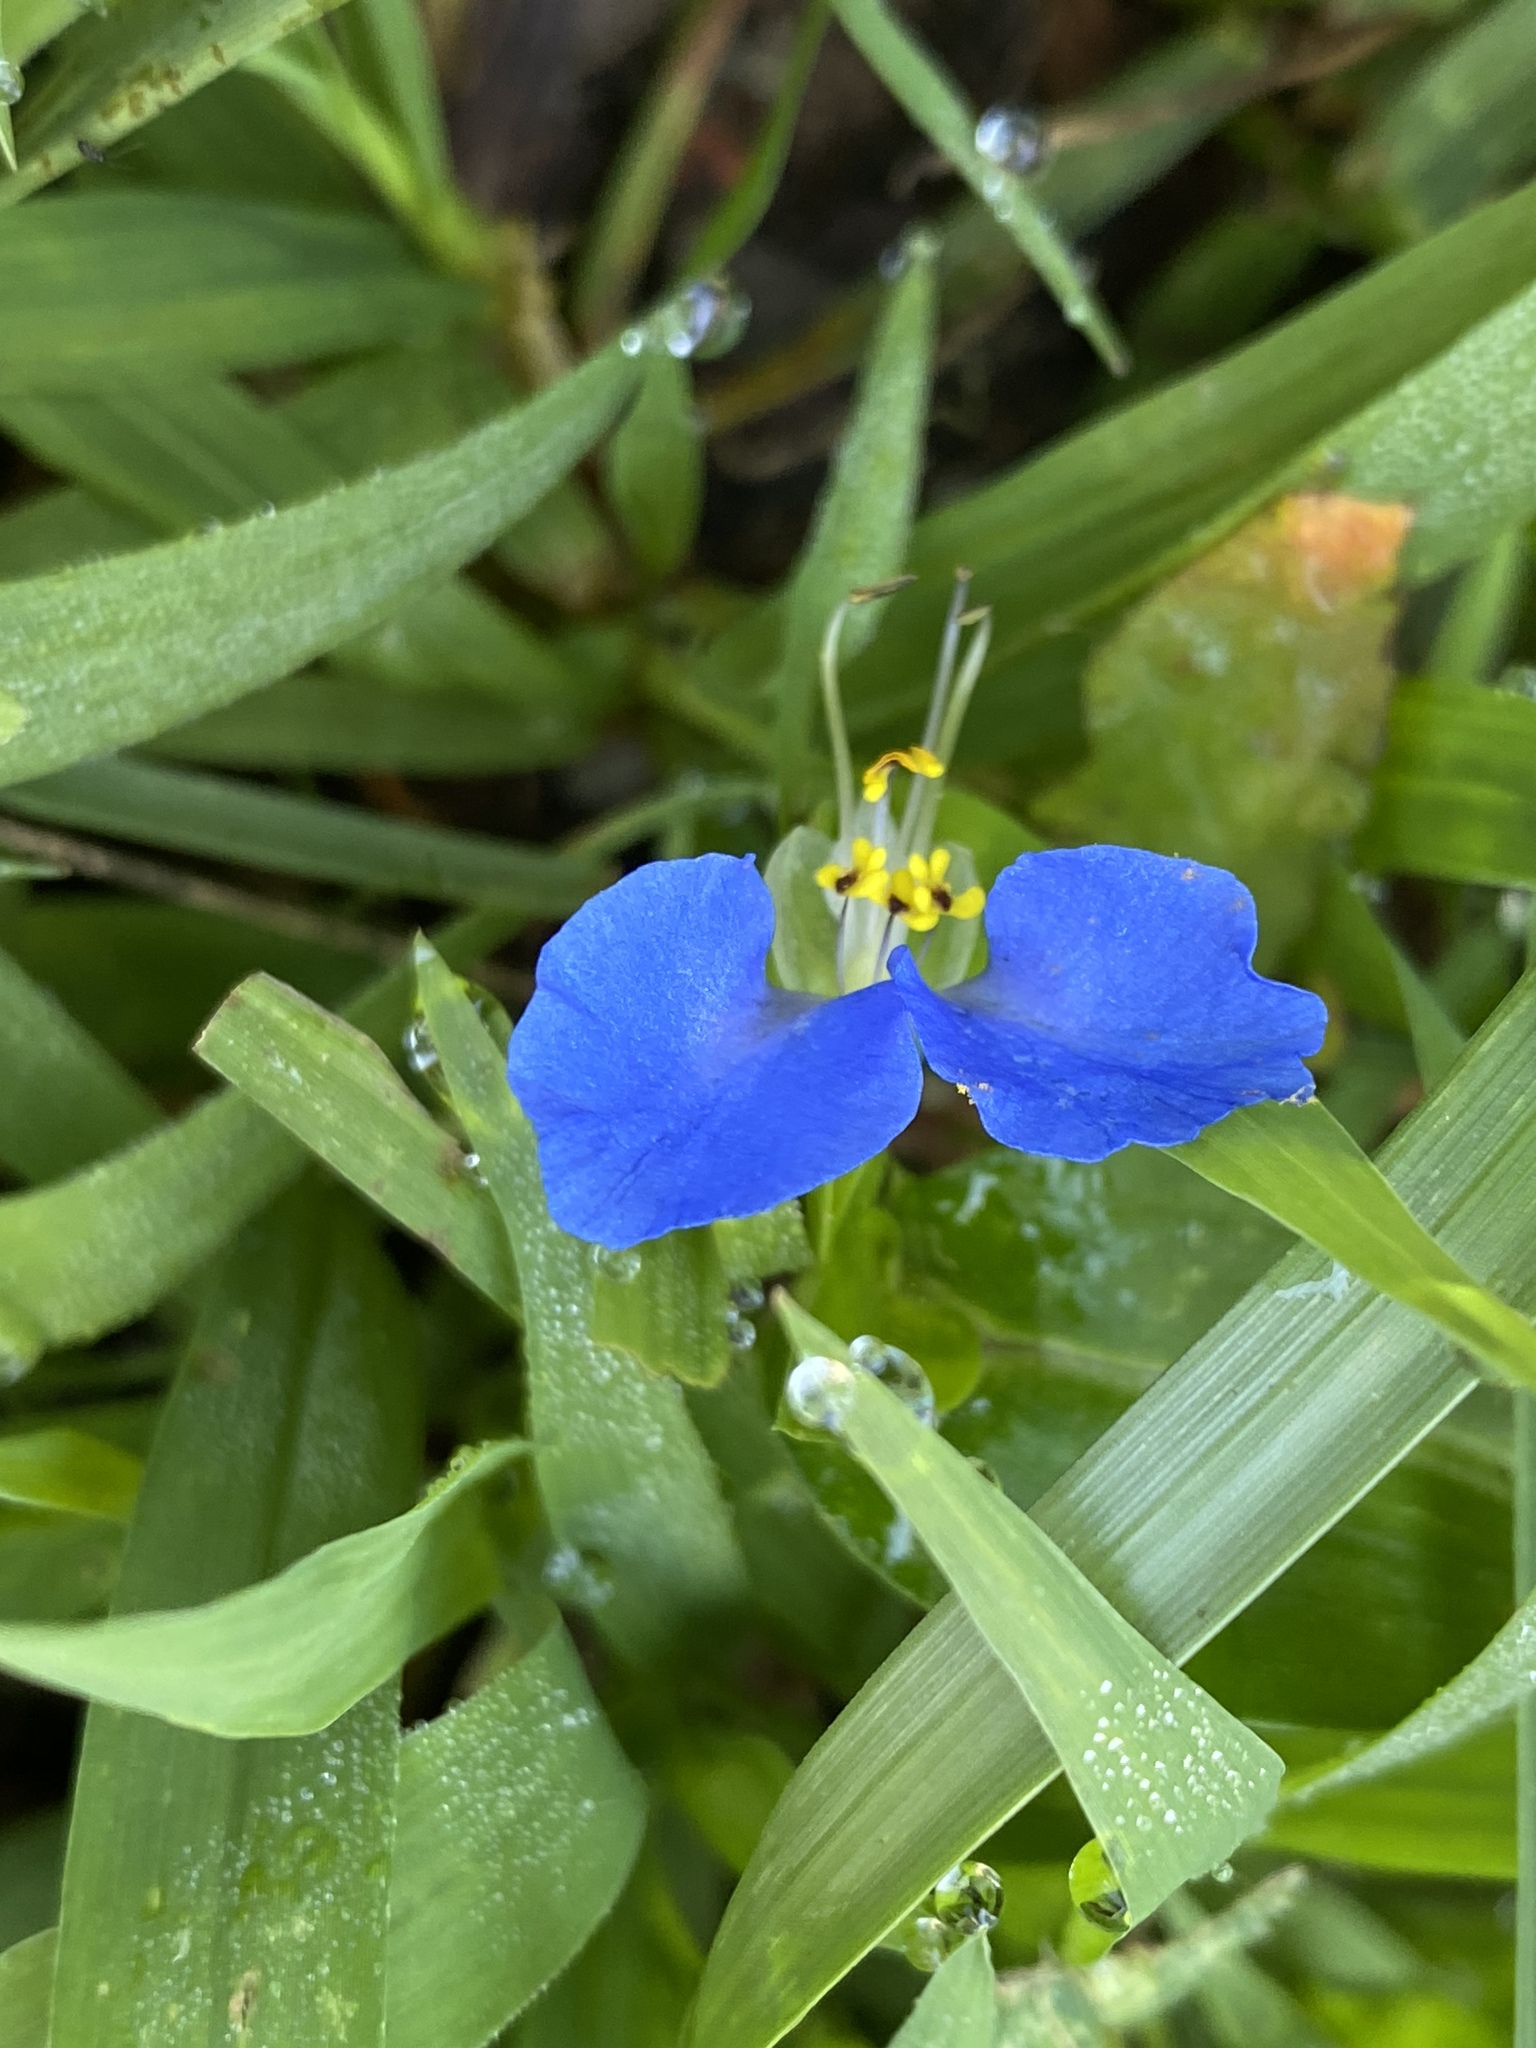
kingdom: Plantae
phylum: Tracheophyta
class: Liliopsida
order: Commelinales
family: Commelinaceae
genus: Commelina
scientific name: Commelina communis
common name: Asiatic dayflower
